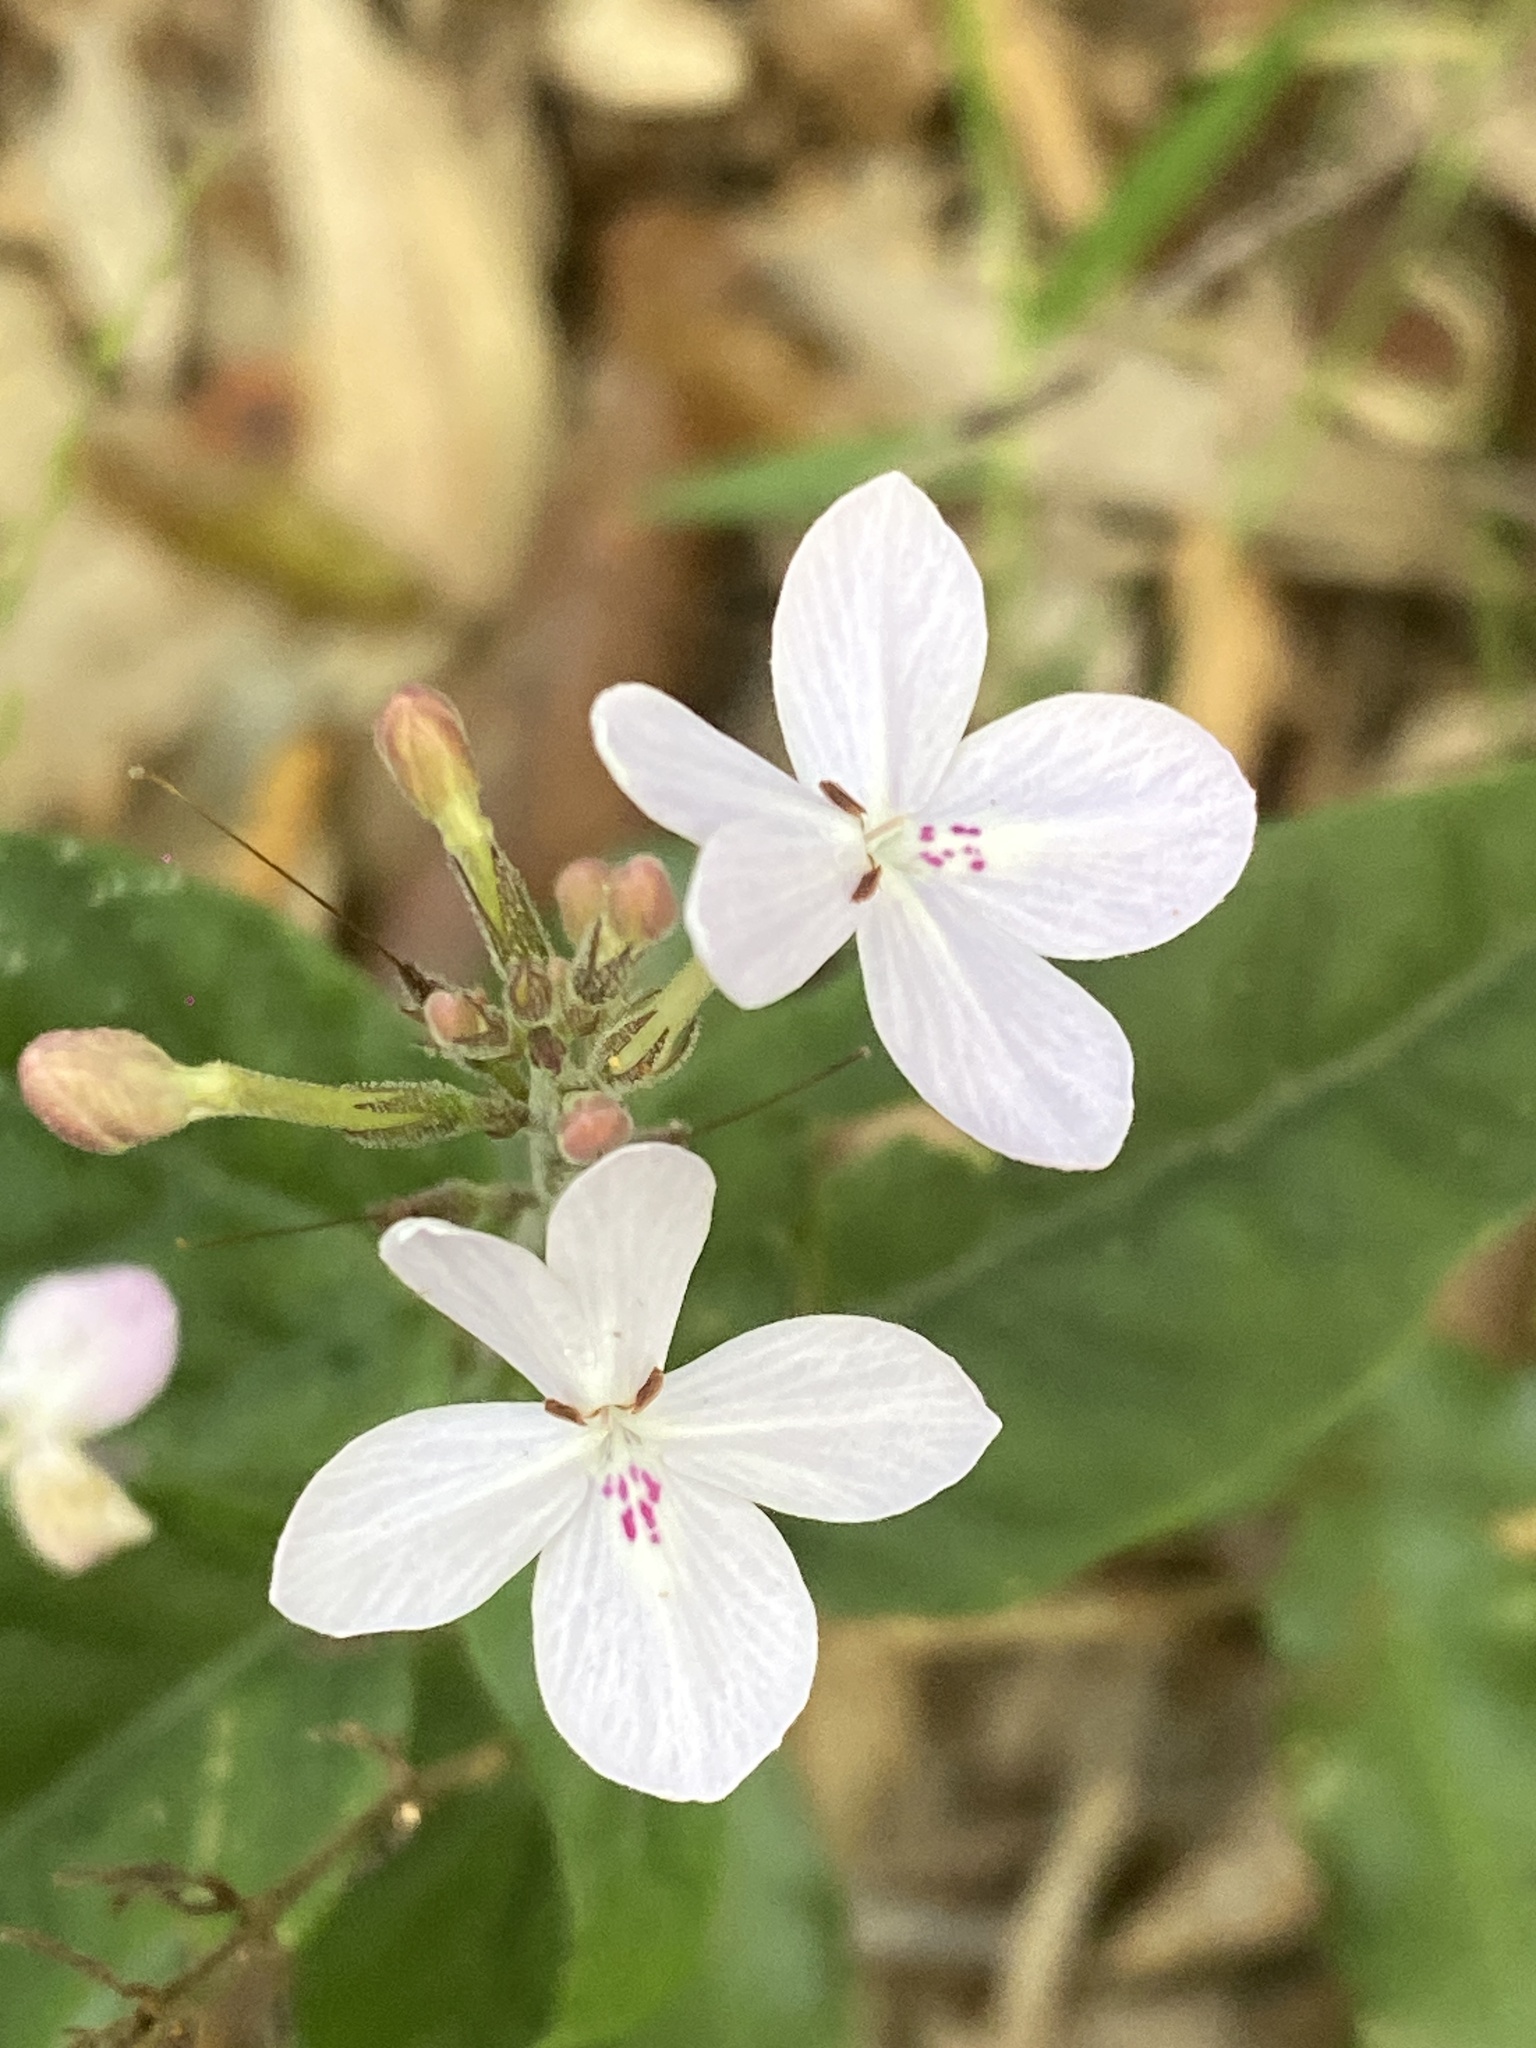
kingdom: Plantae
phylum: Tracheophyta
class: Magnoliopsida
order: Lamiales
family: Acanthaceae
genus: Pseuderanthemum
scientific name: Pseuderanthemum variabile
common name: Night and afternoon
